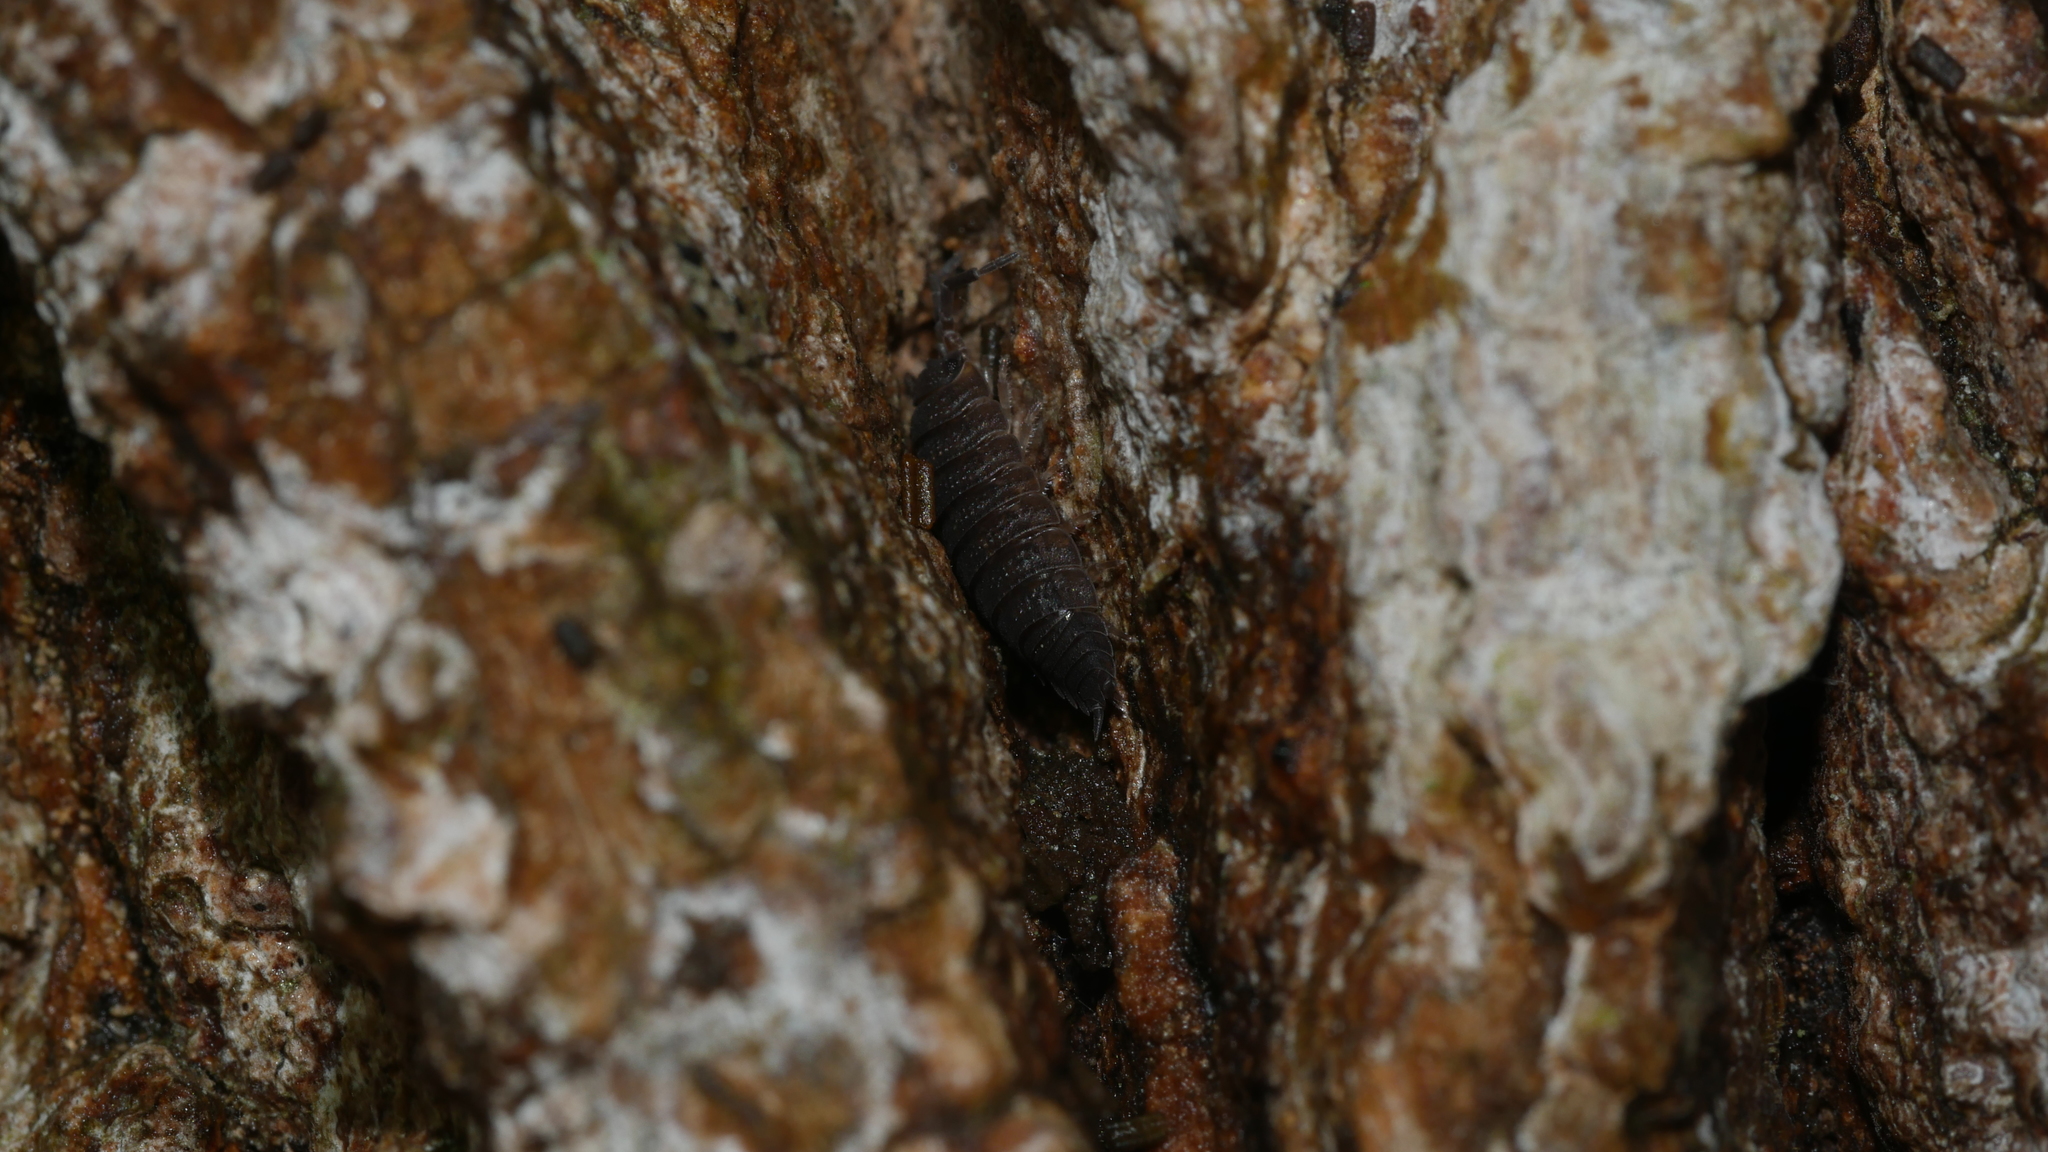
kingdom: Animalia
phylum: Arthropoda
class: Malacostraca
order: Isopoda
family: Porcellionidae
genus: Porcellio
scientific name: Porcellio scaber
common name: Common rough woodlouse
